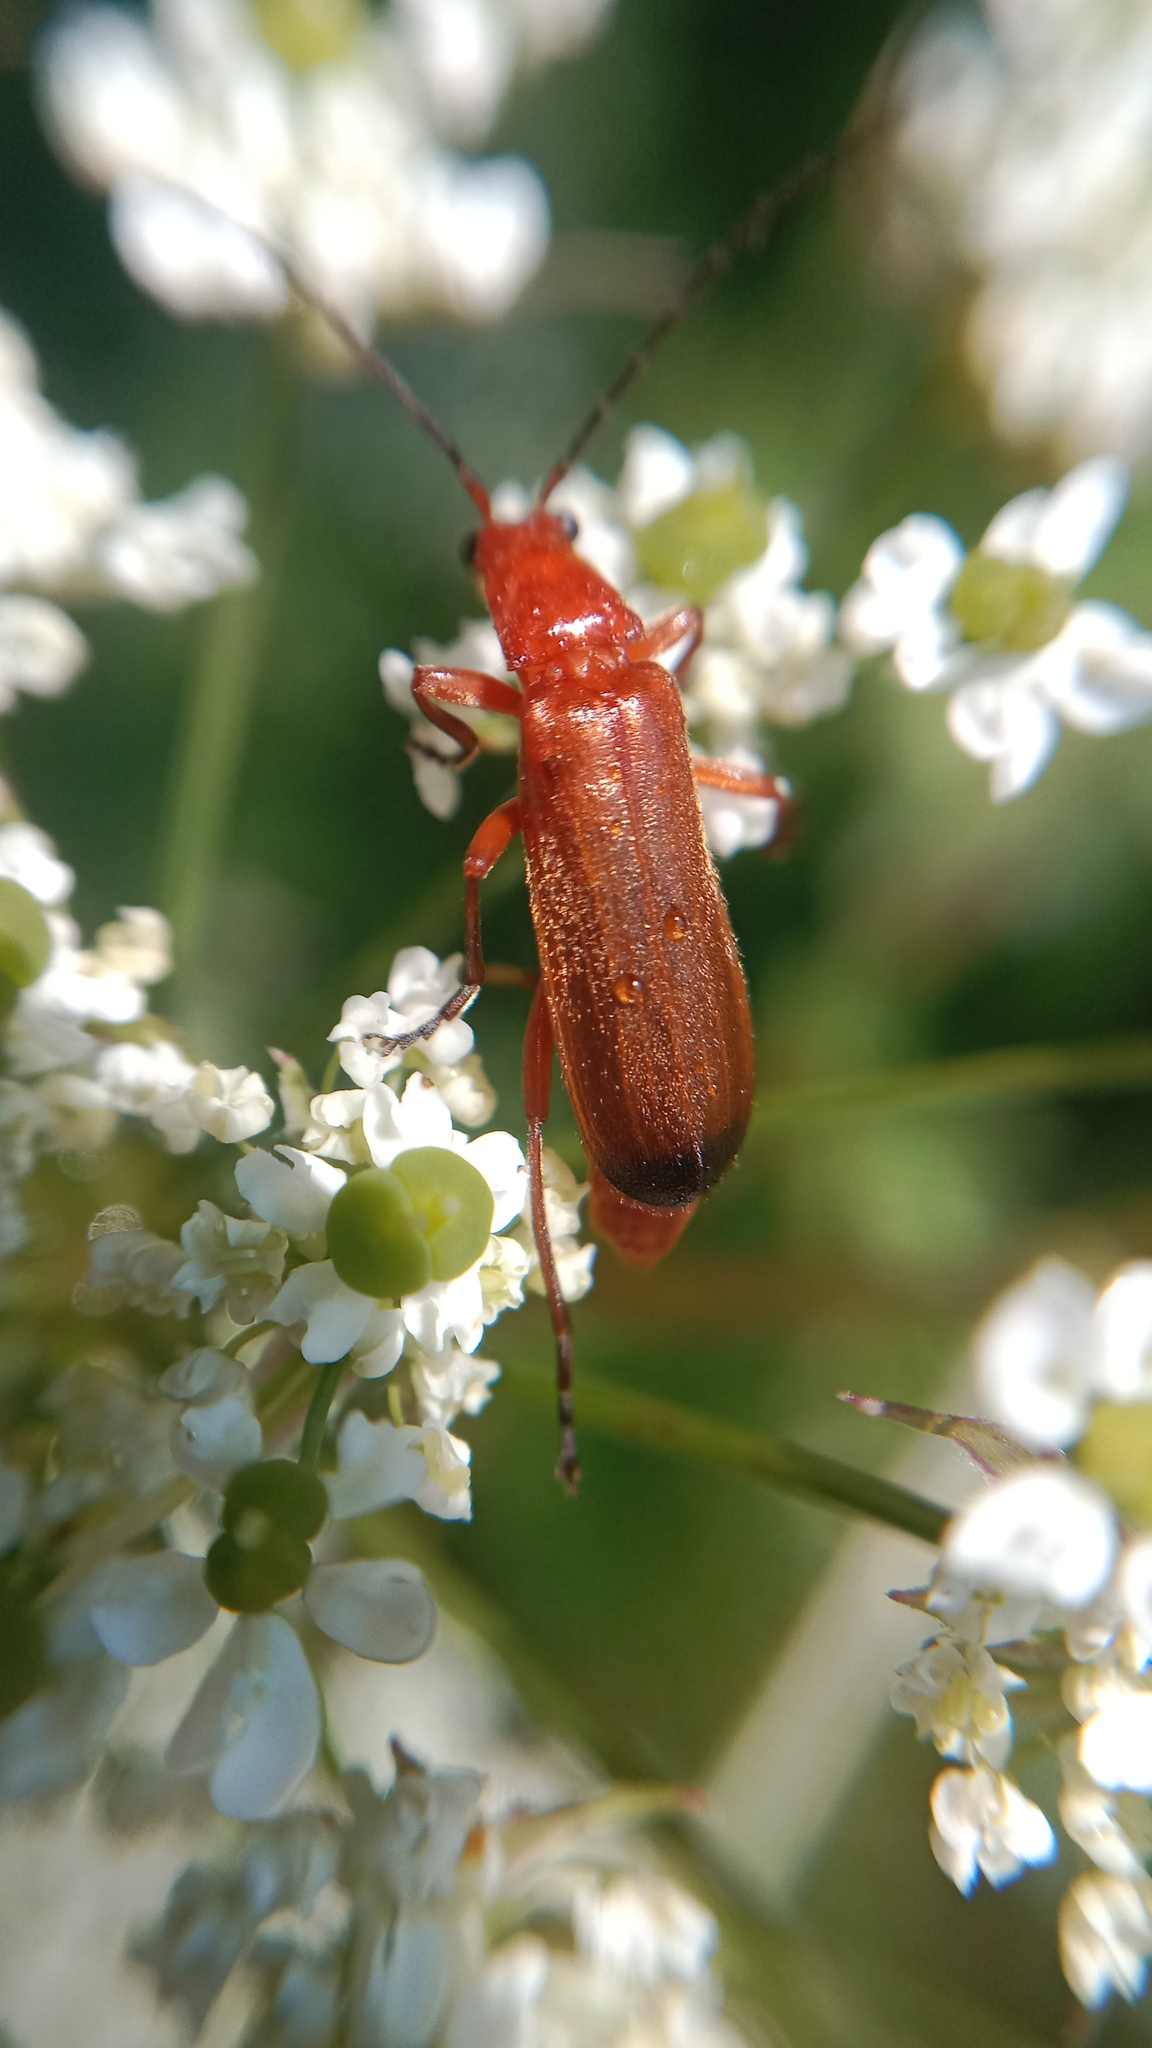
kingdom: Animalia
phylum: Arthropoda
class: Insecta
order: Coleoptera
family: Cantharidae
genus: Rhagonycha
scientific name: Rhagonycha fulva
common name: Common red soldier beetle
